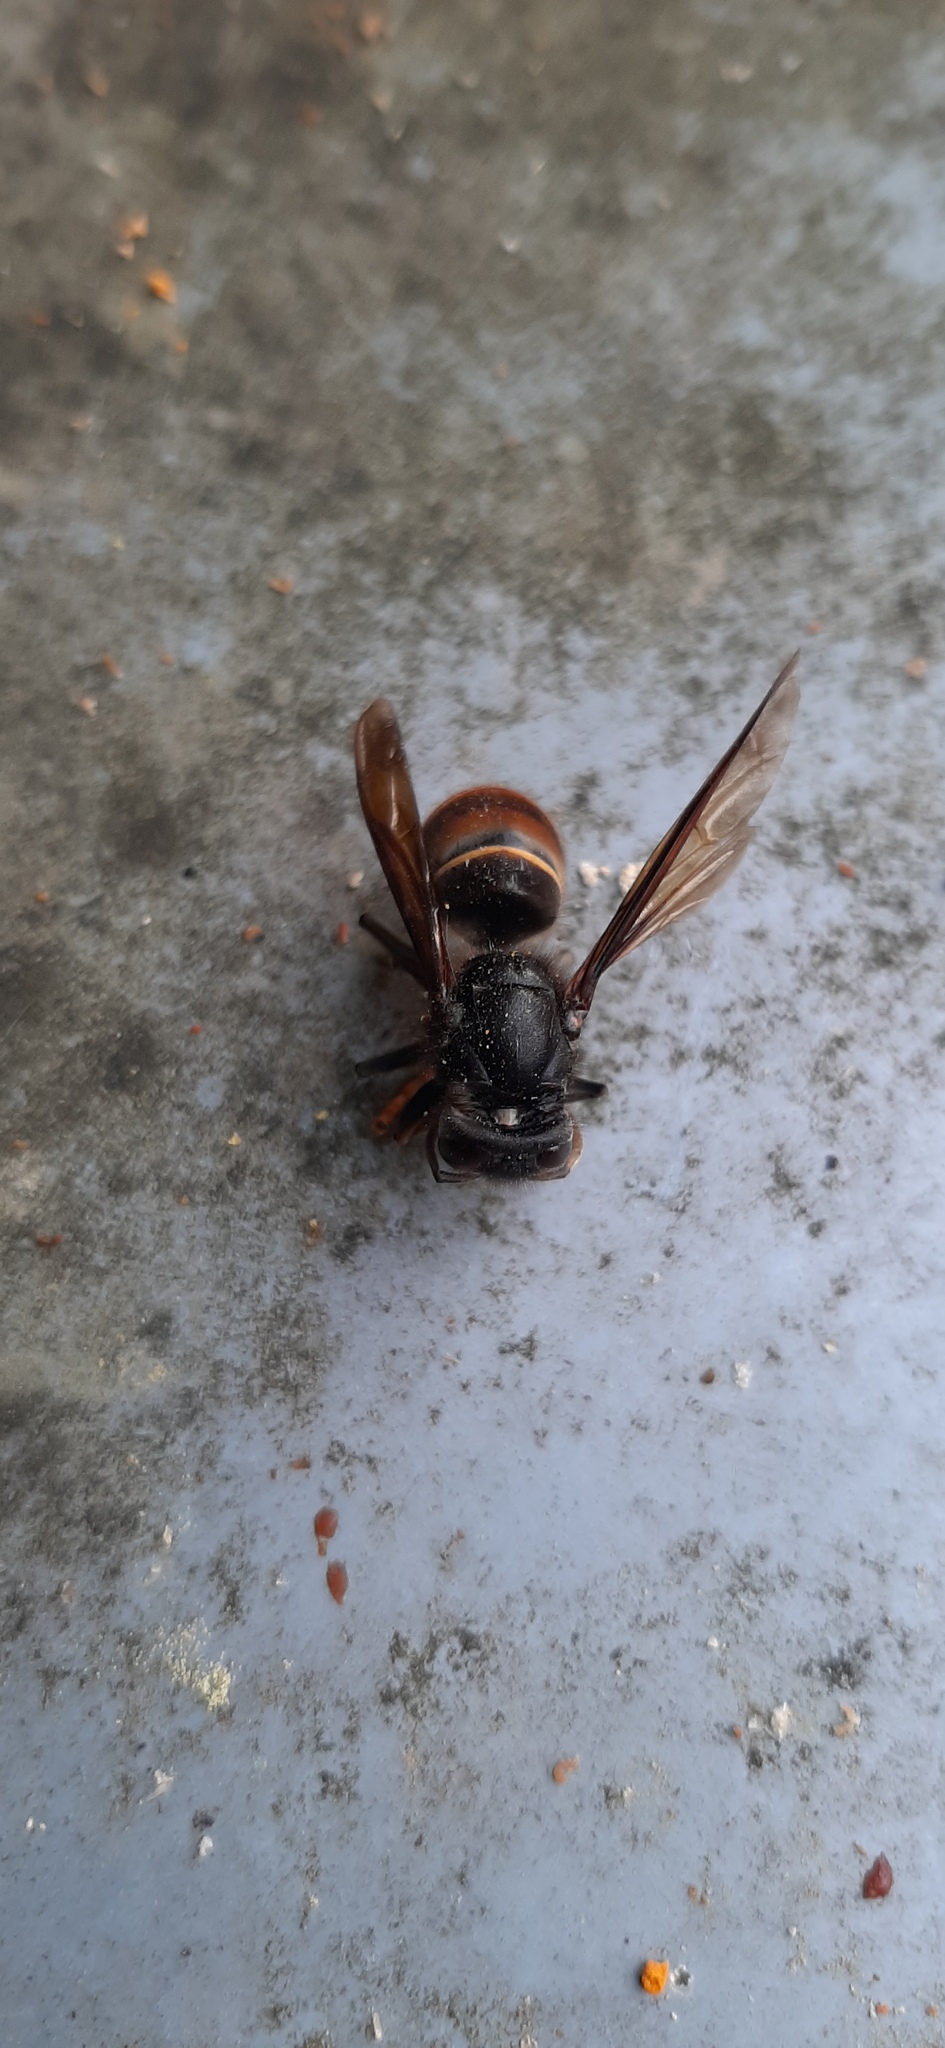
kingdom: Animalia
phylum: Arthropoda
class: Insecta
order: Hymenoptera
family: Vespidae
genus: Vespa
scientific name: Vespa velutina
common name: Asian hornet
